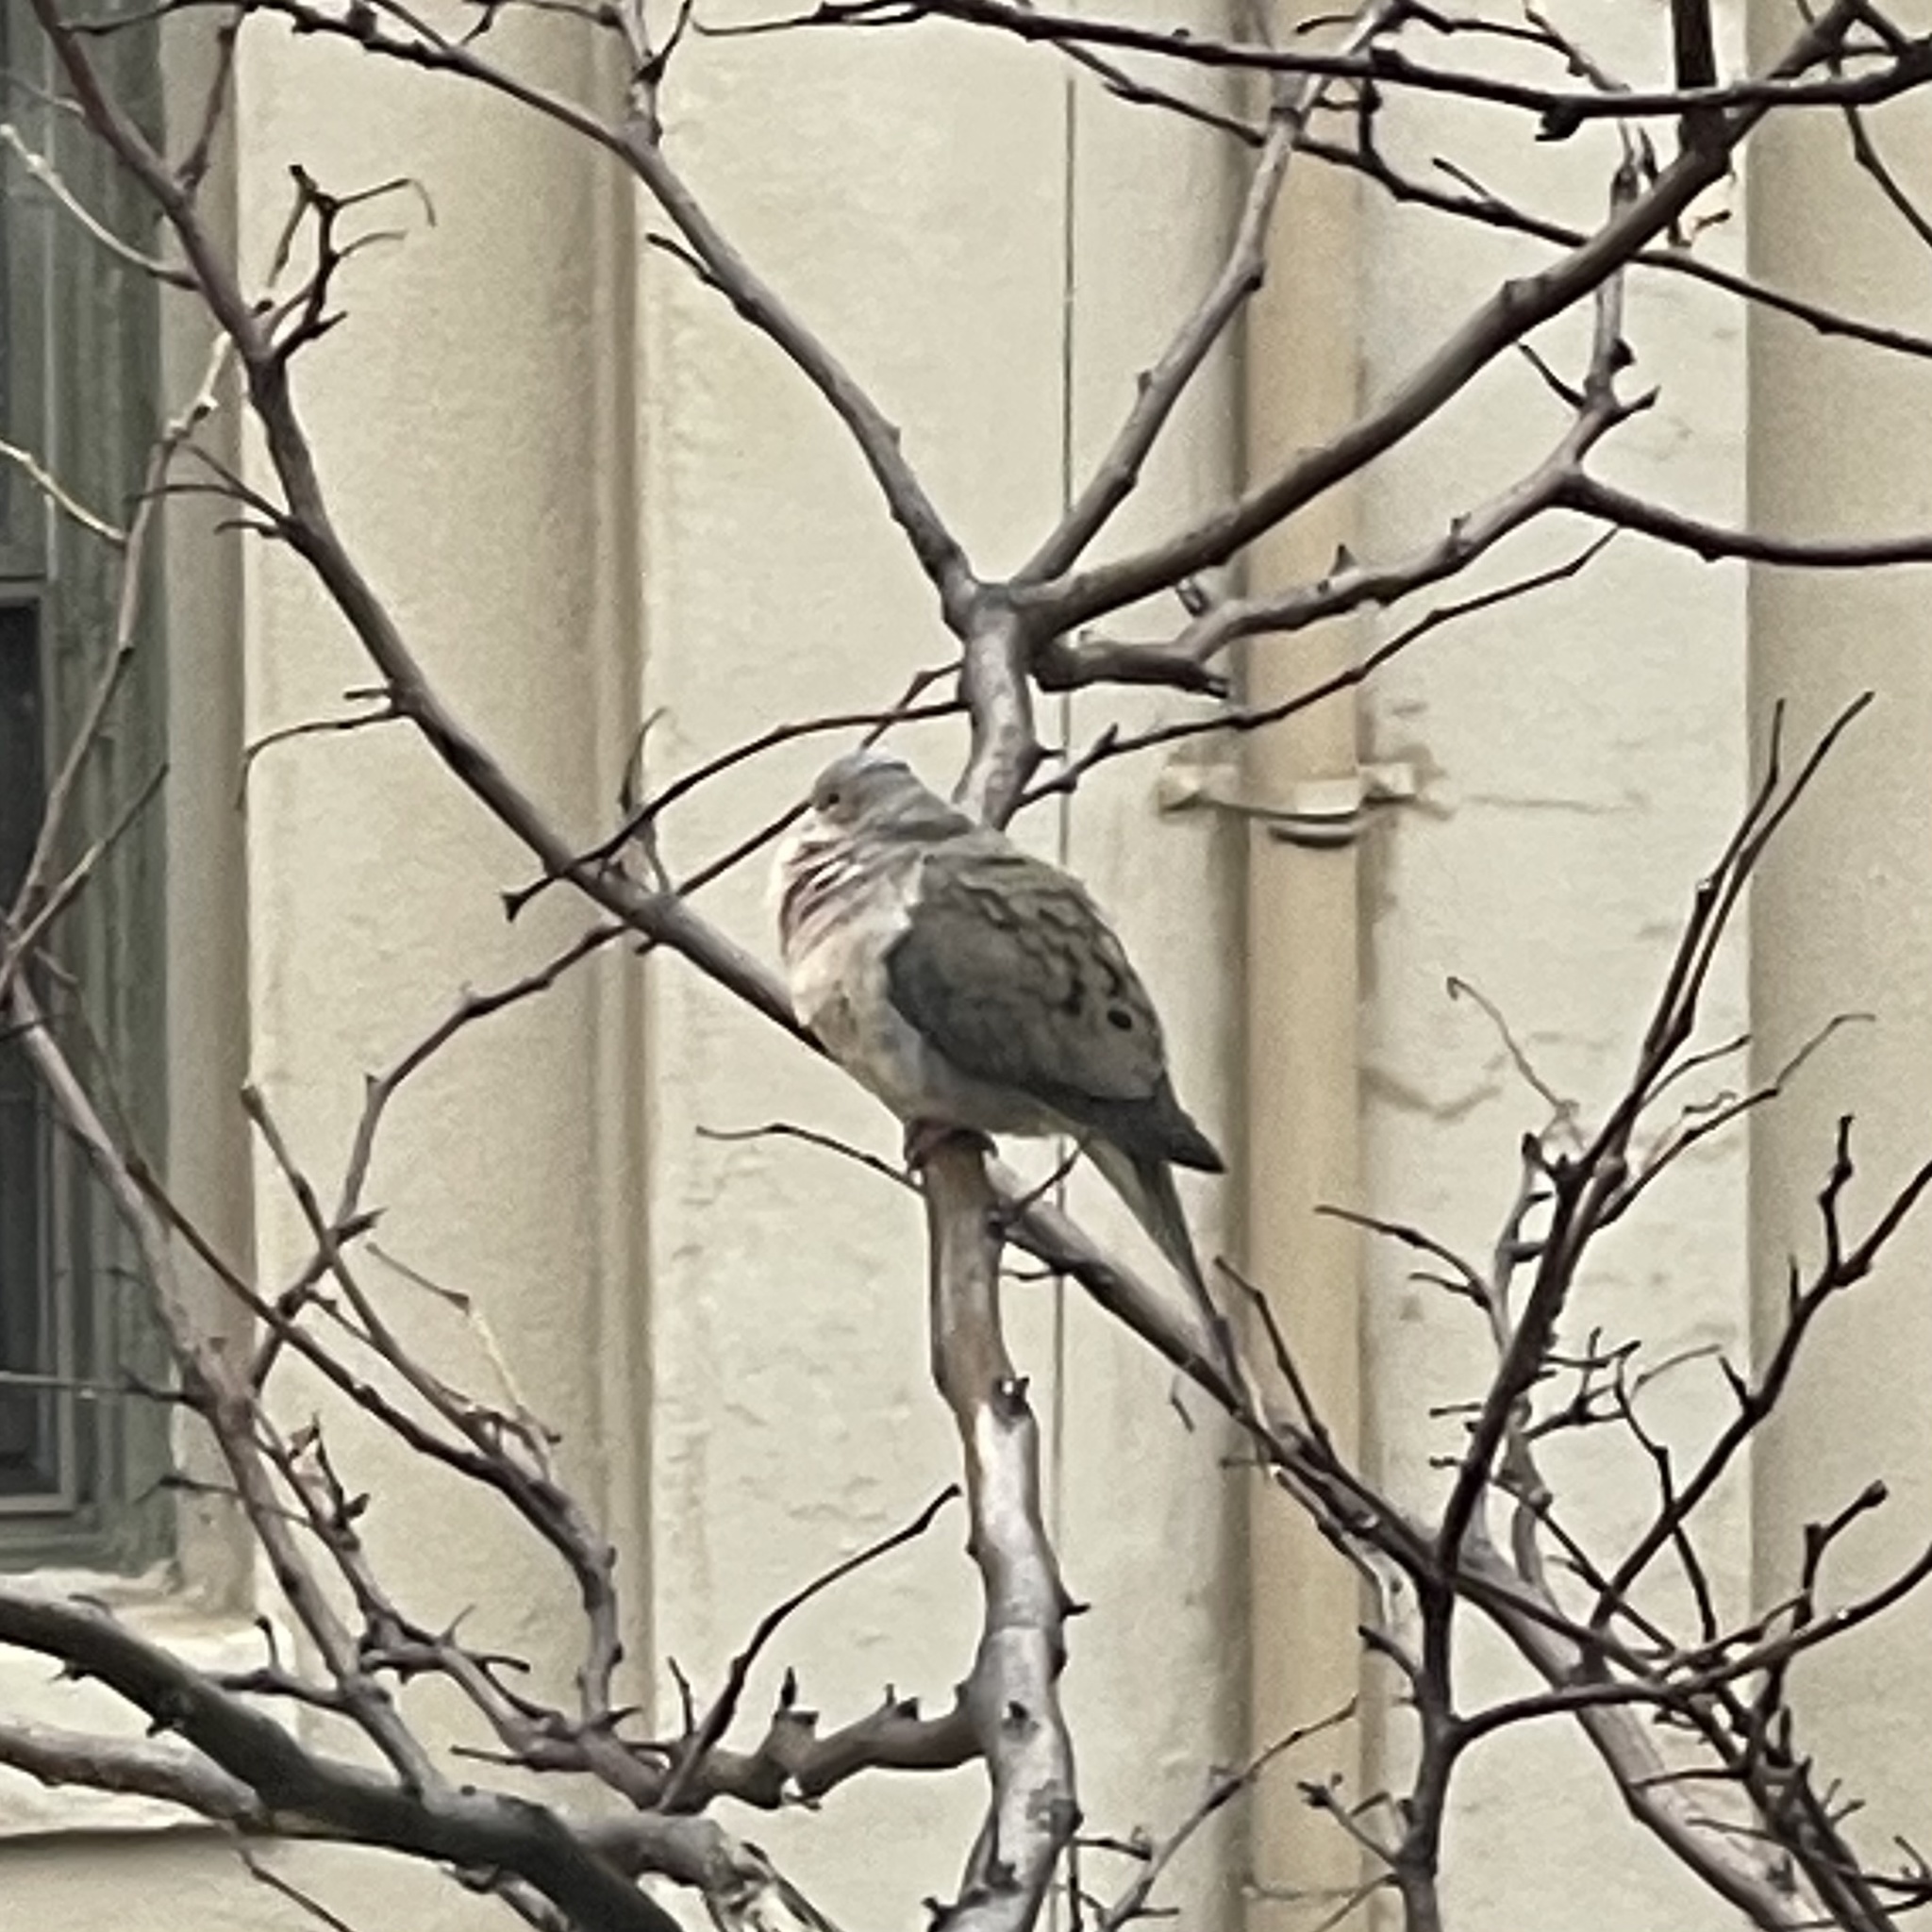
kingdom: Animalia
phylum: Chordata
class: Aves
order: Columbiformes
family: Columbidae
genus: Zenaida
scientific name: Zenaida macroura
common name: Mourning dove
